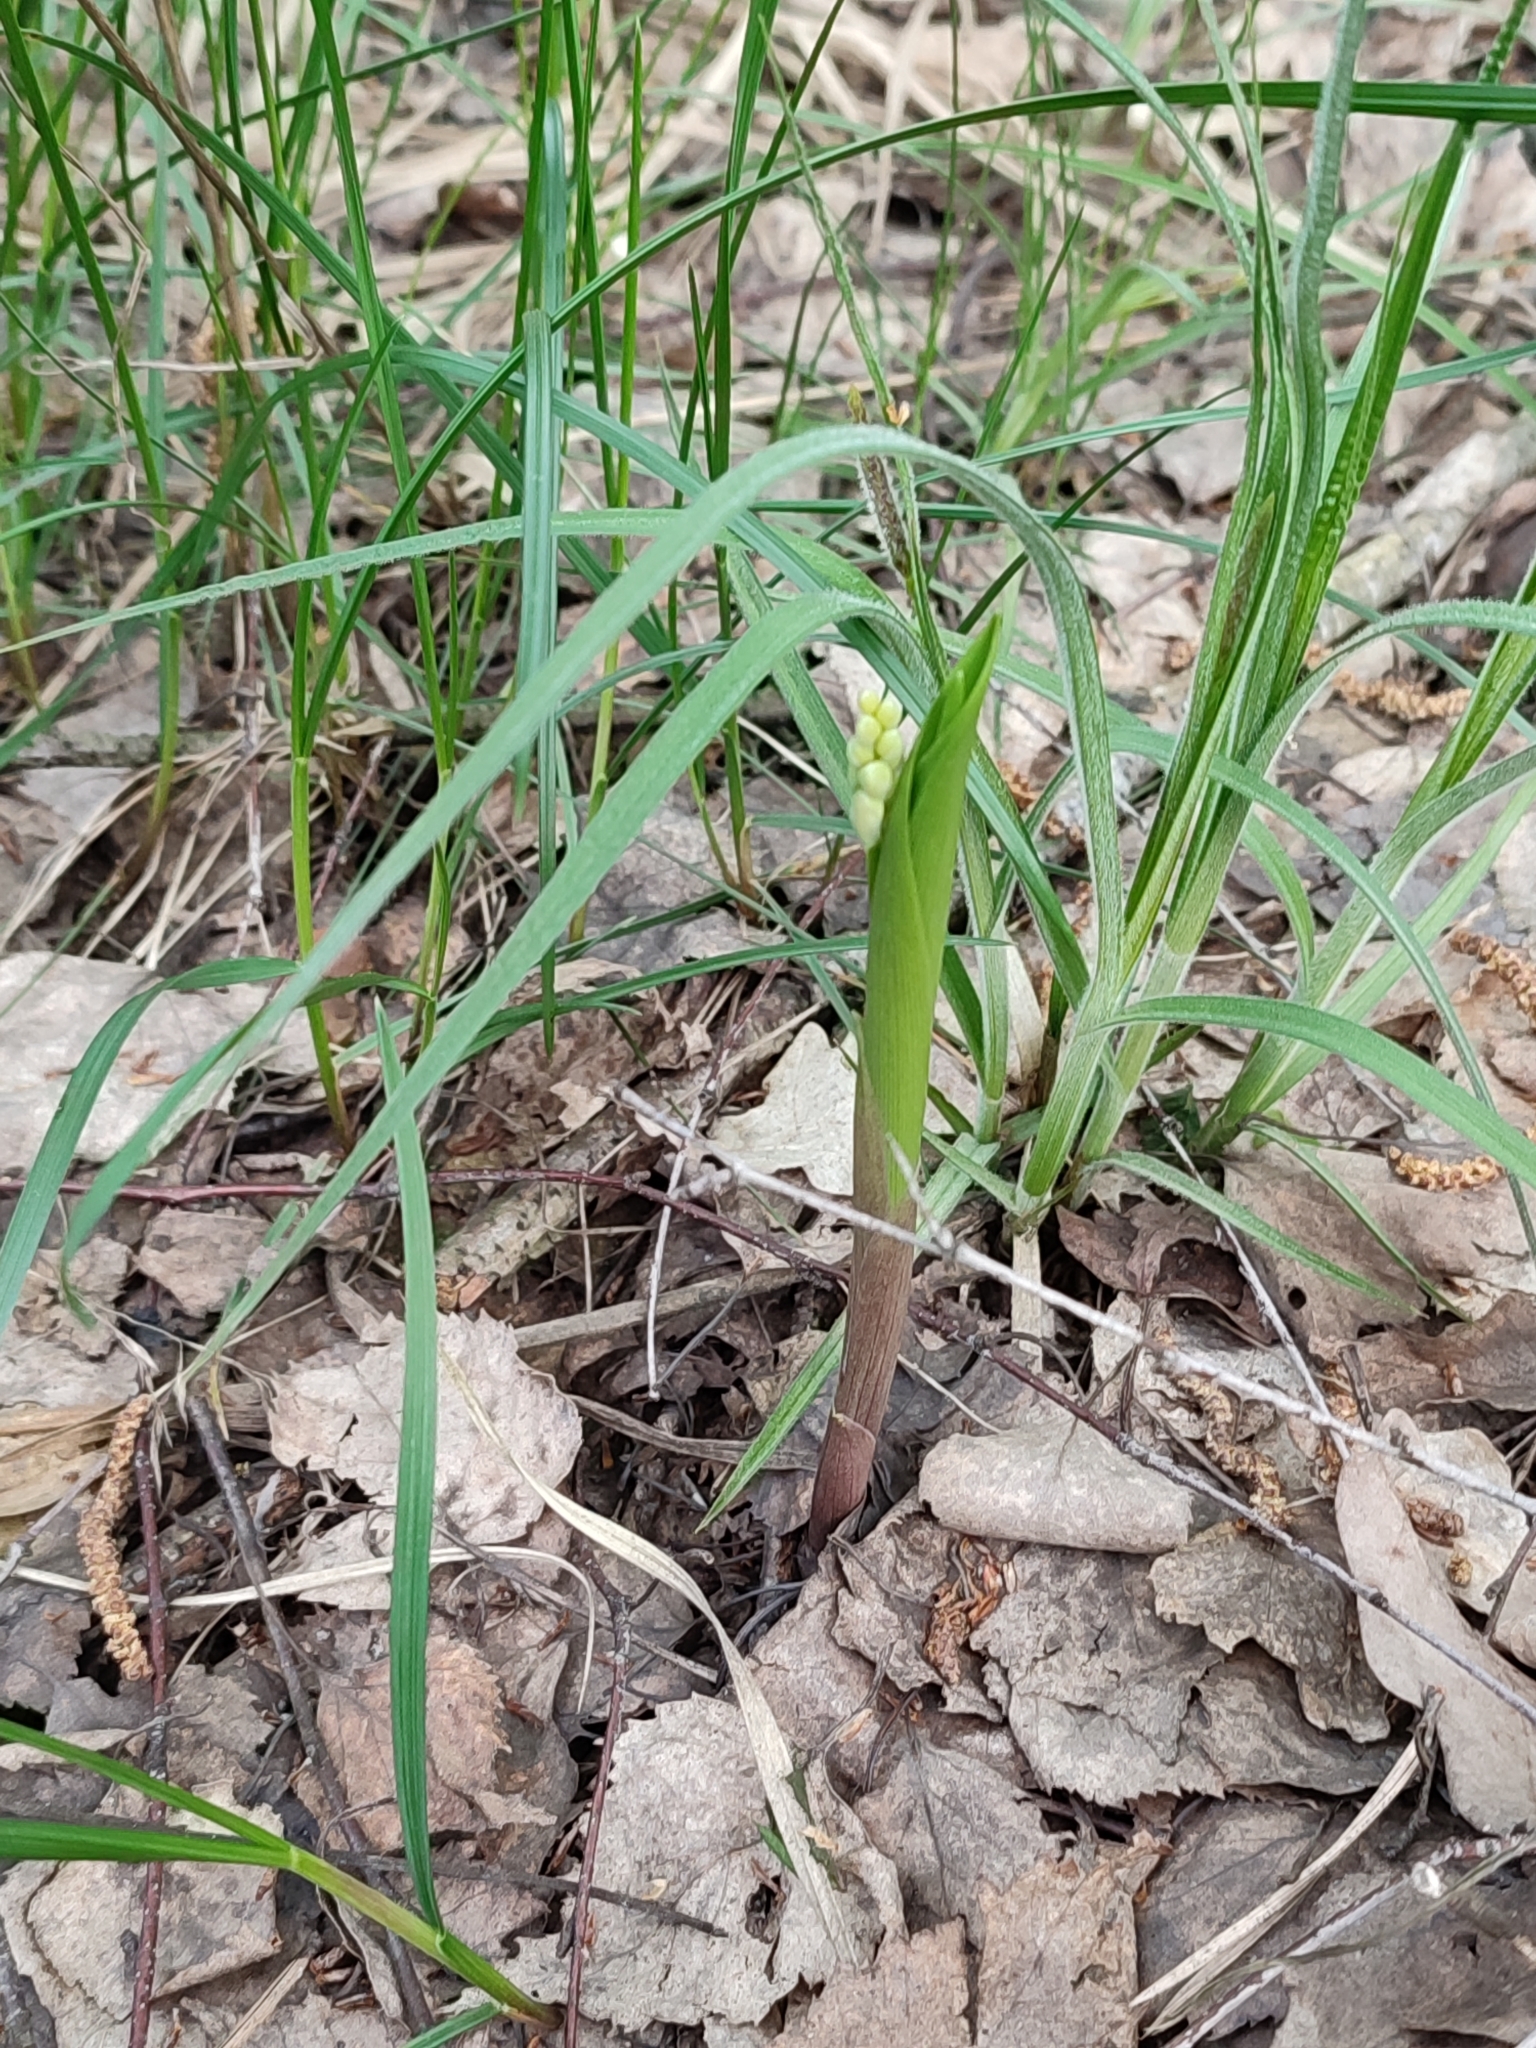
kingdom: Plantae
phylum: Tracheophyta
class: Liliopsida
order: Asparagales
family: Asparagaceae
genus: Convallaria
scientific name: Convallaria majalis
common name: Lily-of-the-valley
